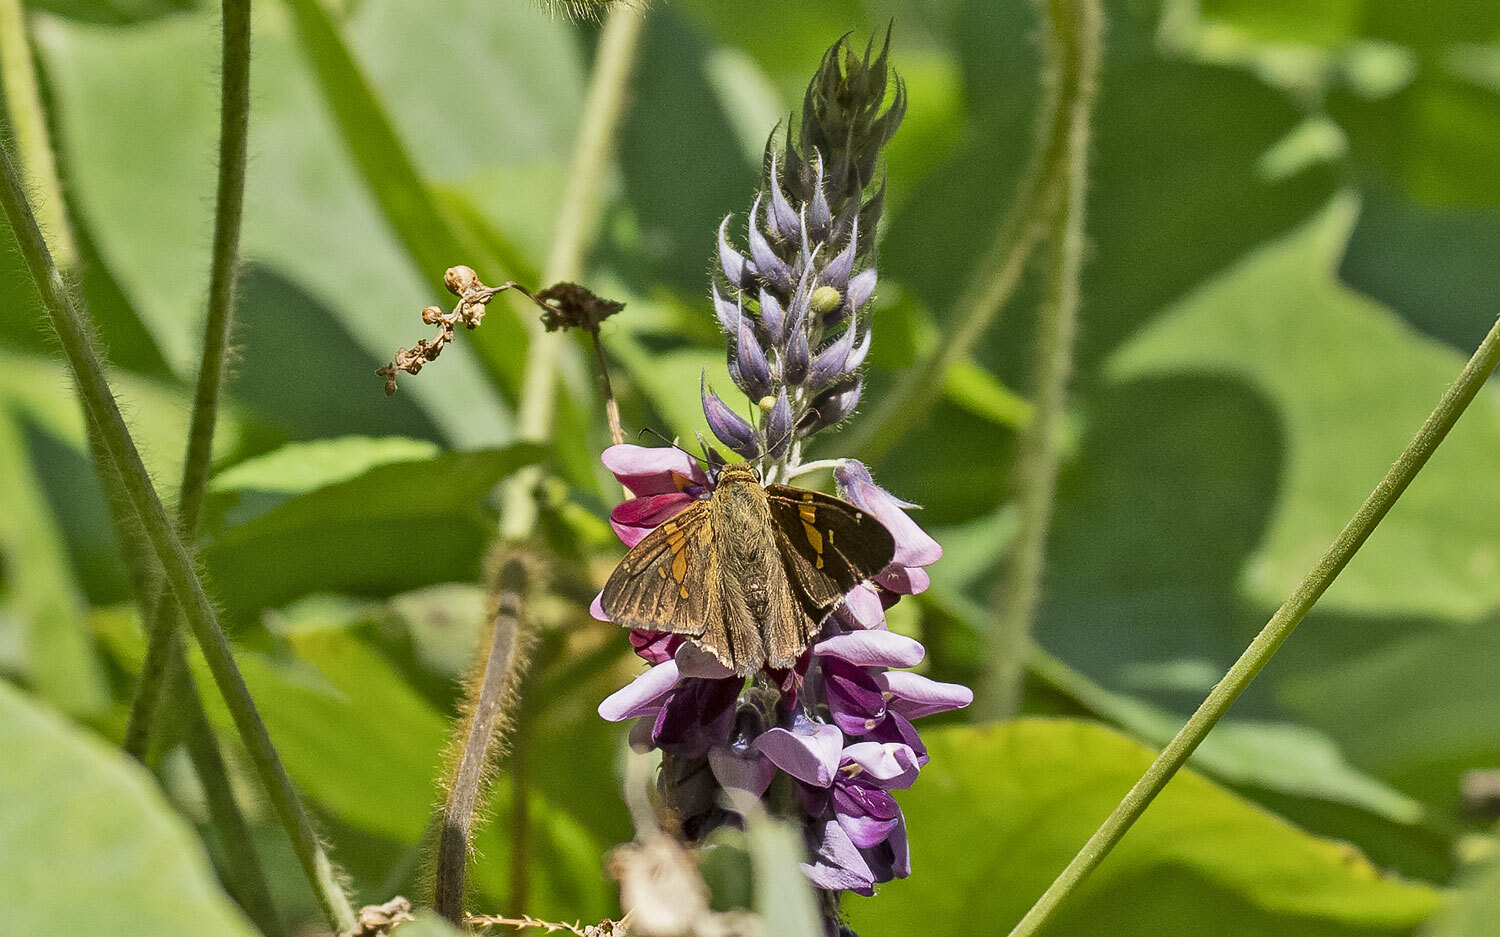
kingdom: Animalia
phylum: Arthropoda
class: Insecta
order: Lepidoptera
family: Hesperiidae
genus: Epargyreus
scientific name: Epargyreus clarus
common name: Silver-spotted skipper
